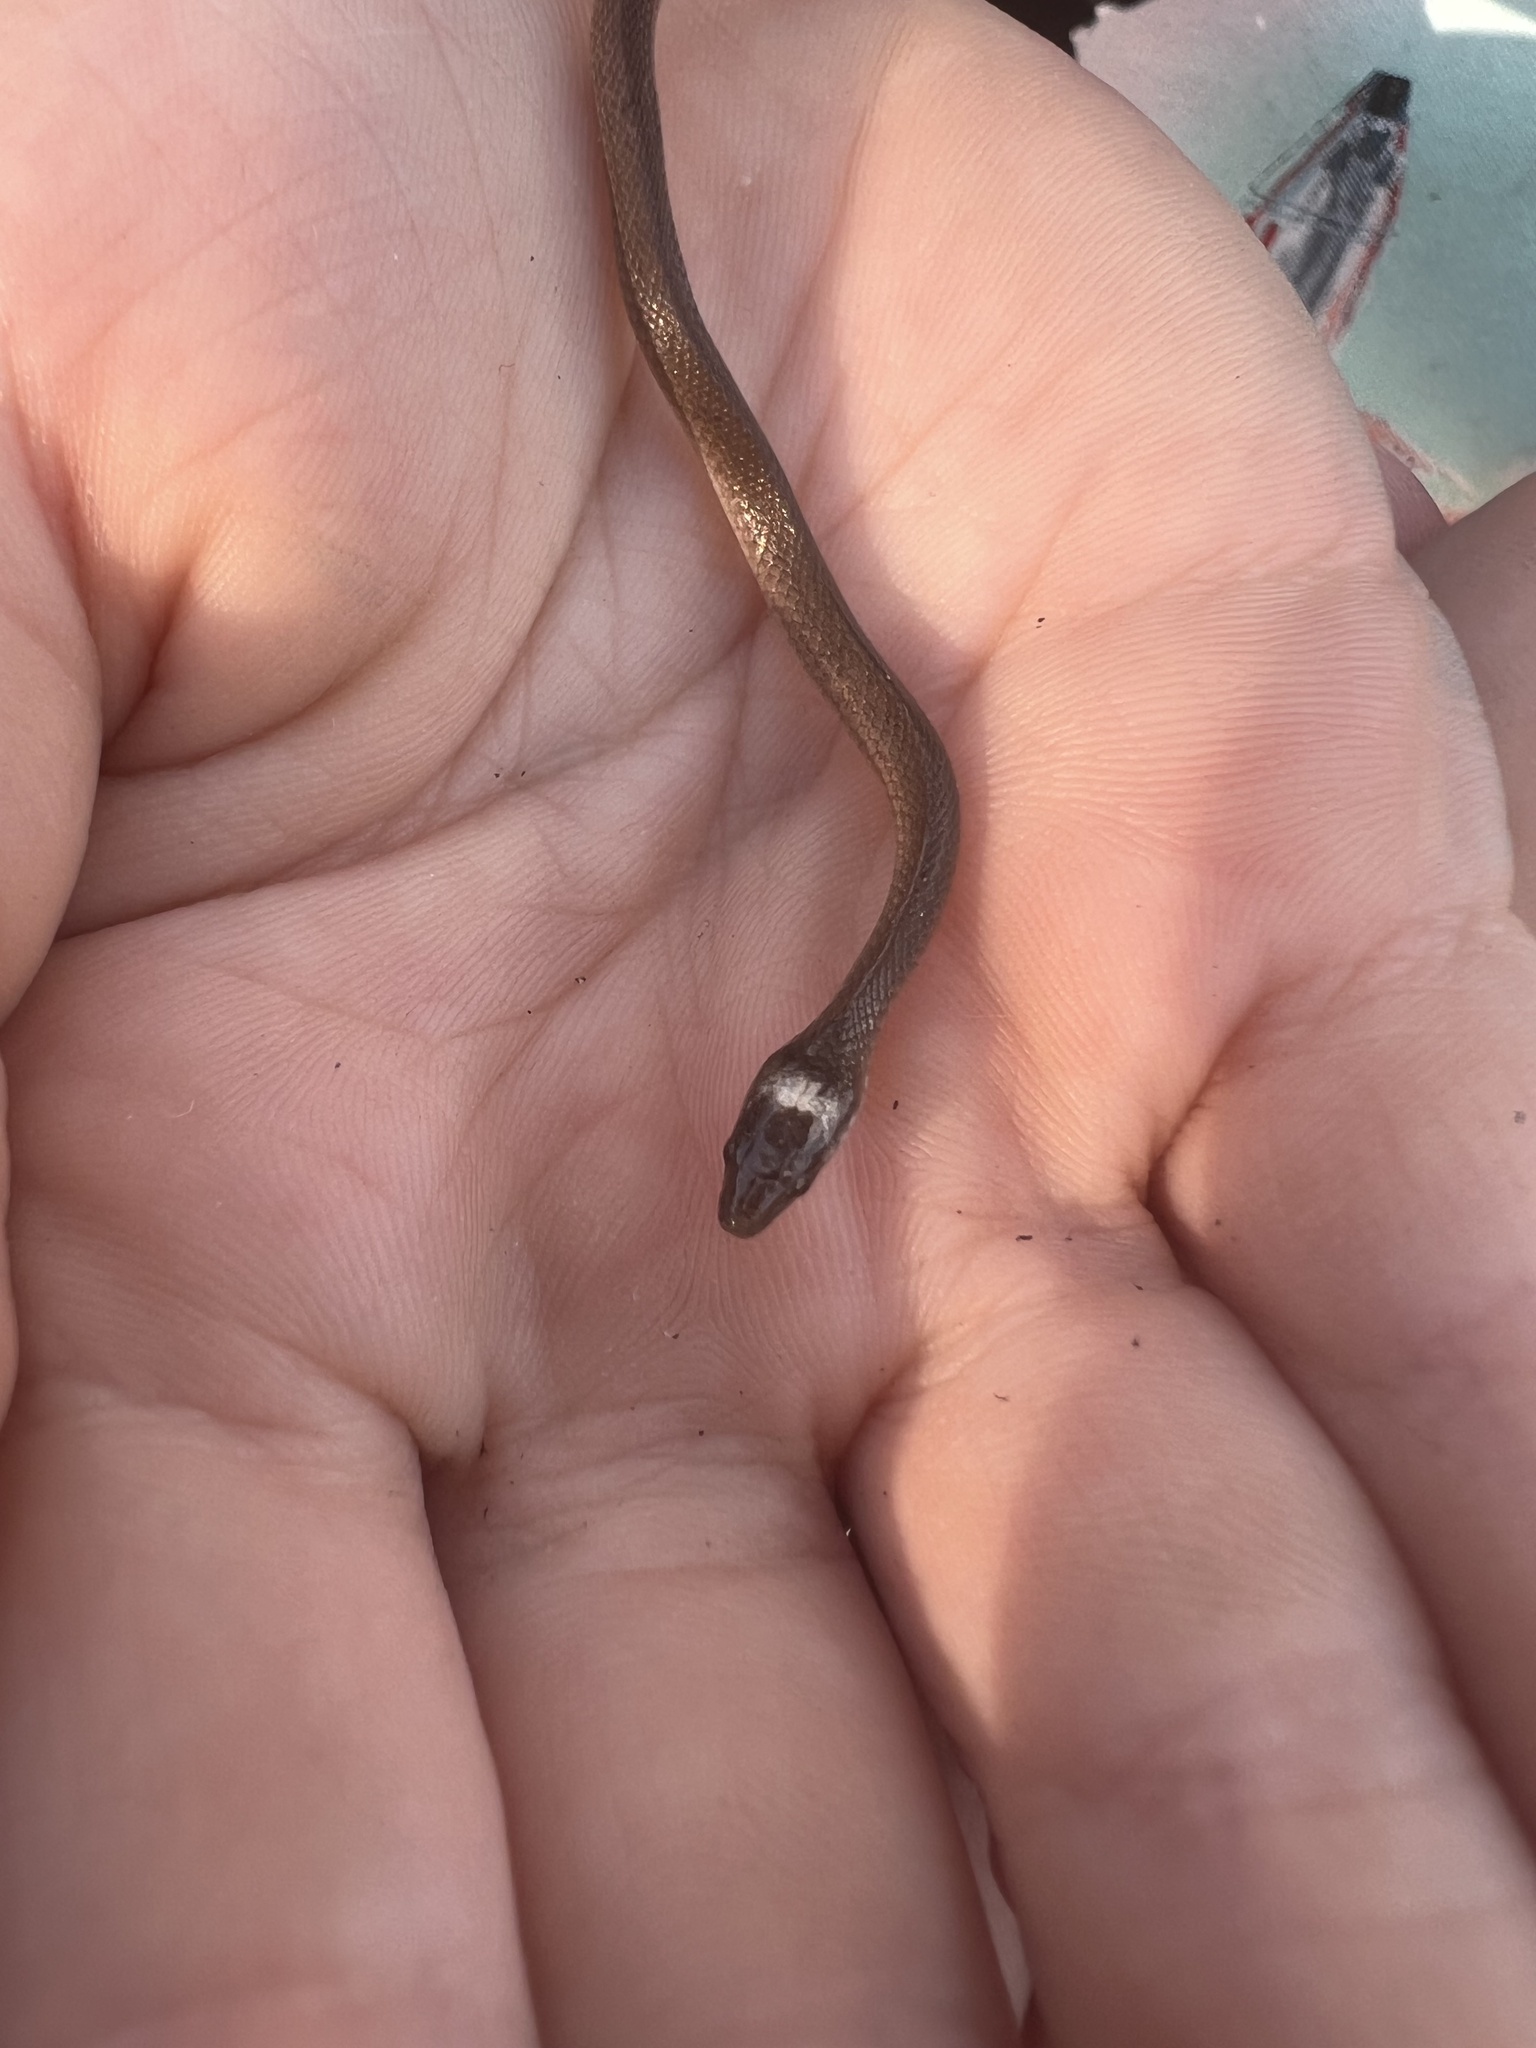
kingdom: Animalia
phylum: Chordata
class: Squamata
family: Colubridae
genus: Haldea
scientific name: Haldea striatula
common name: Rough earth snake
